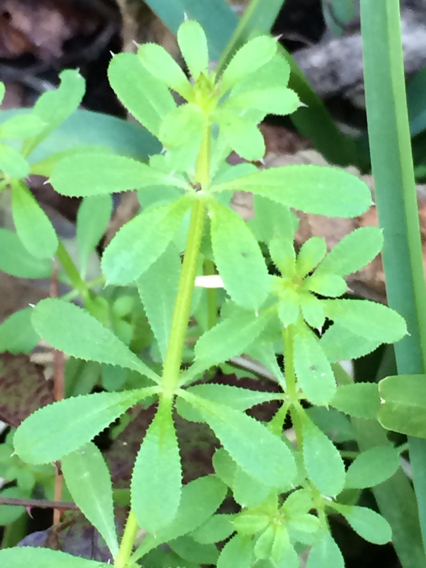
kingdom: Plantae
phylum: Tracheophyta
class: Magnoliopsida
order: Gentianales
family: Rubiaceae
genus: Galium
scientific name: Galium aparine
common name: Cleavers
